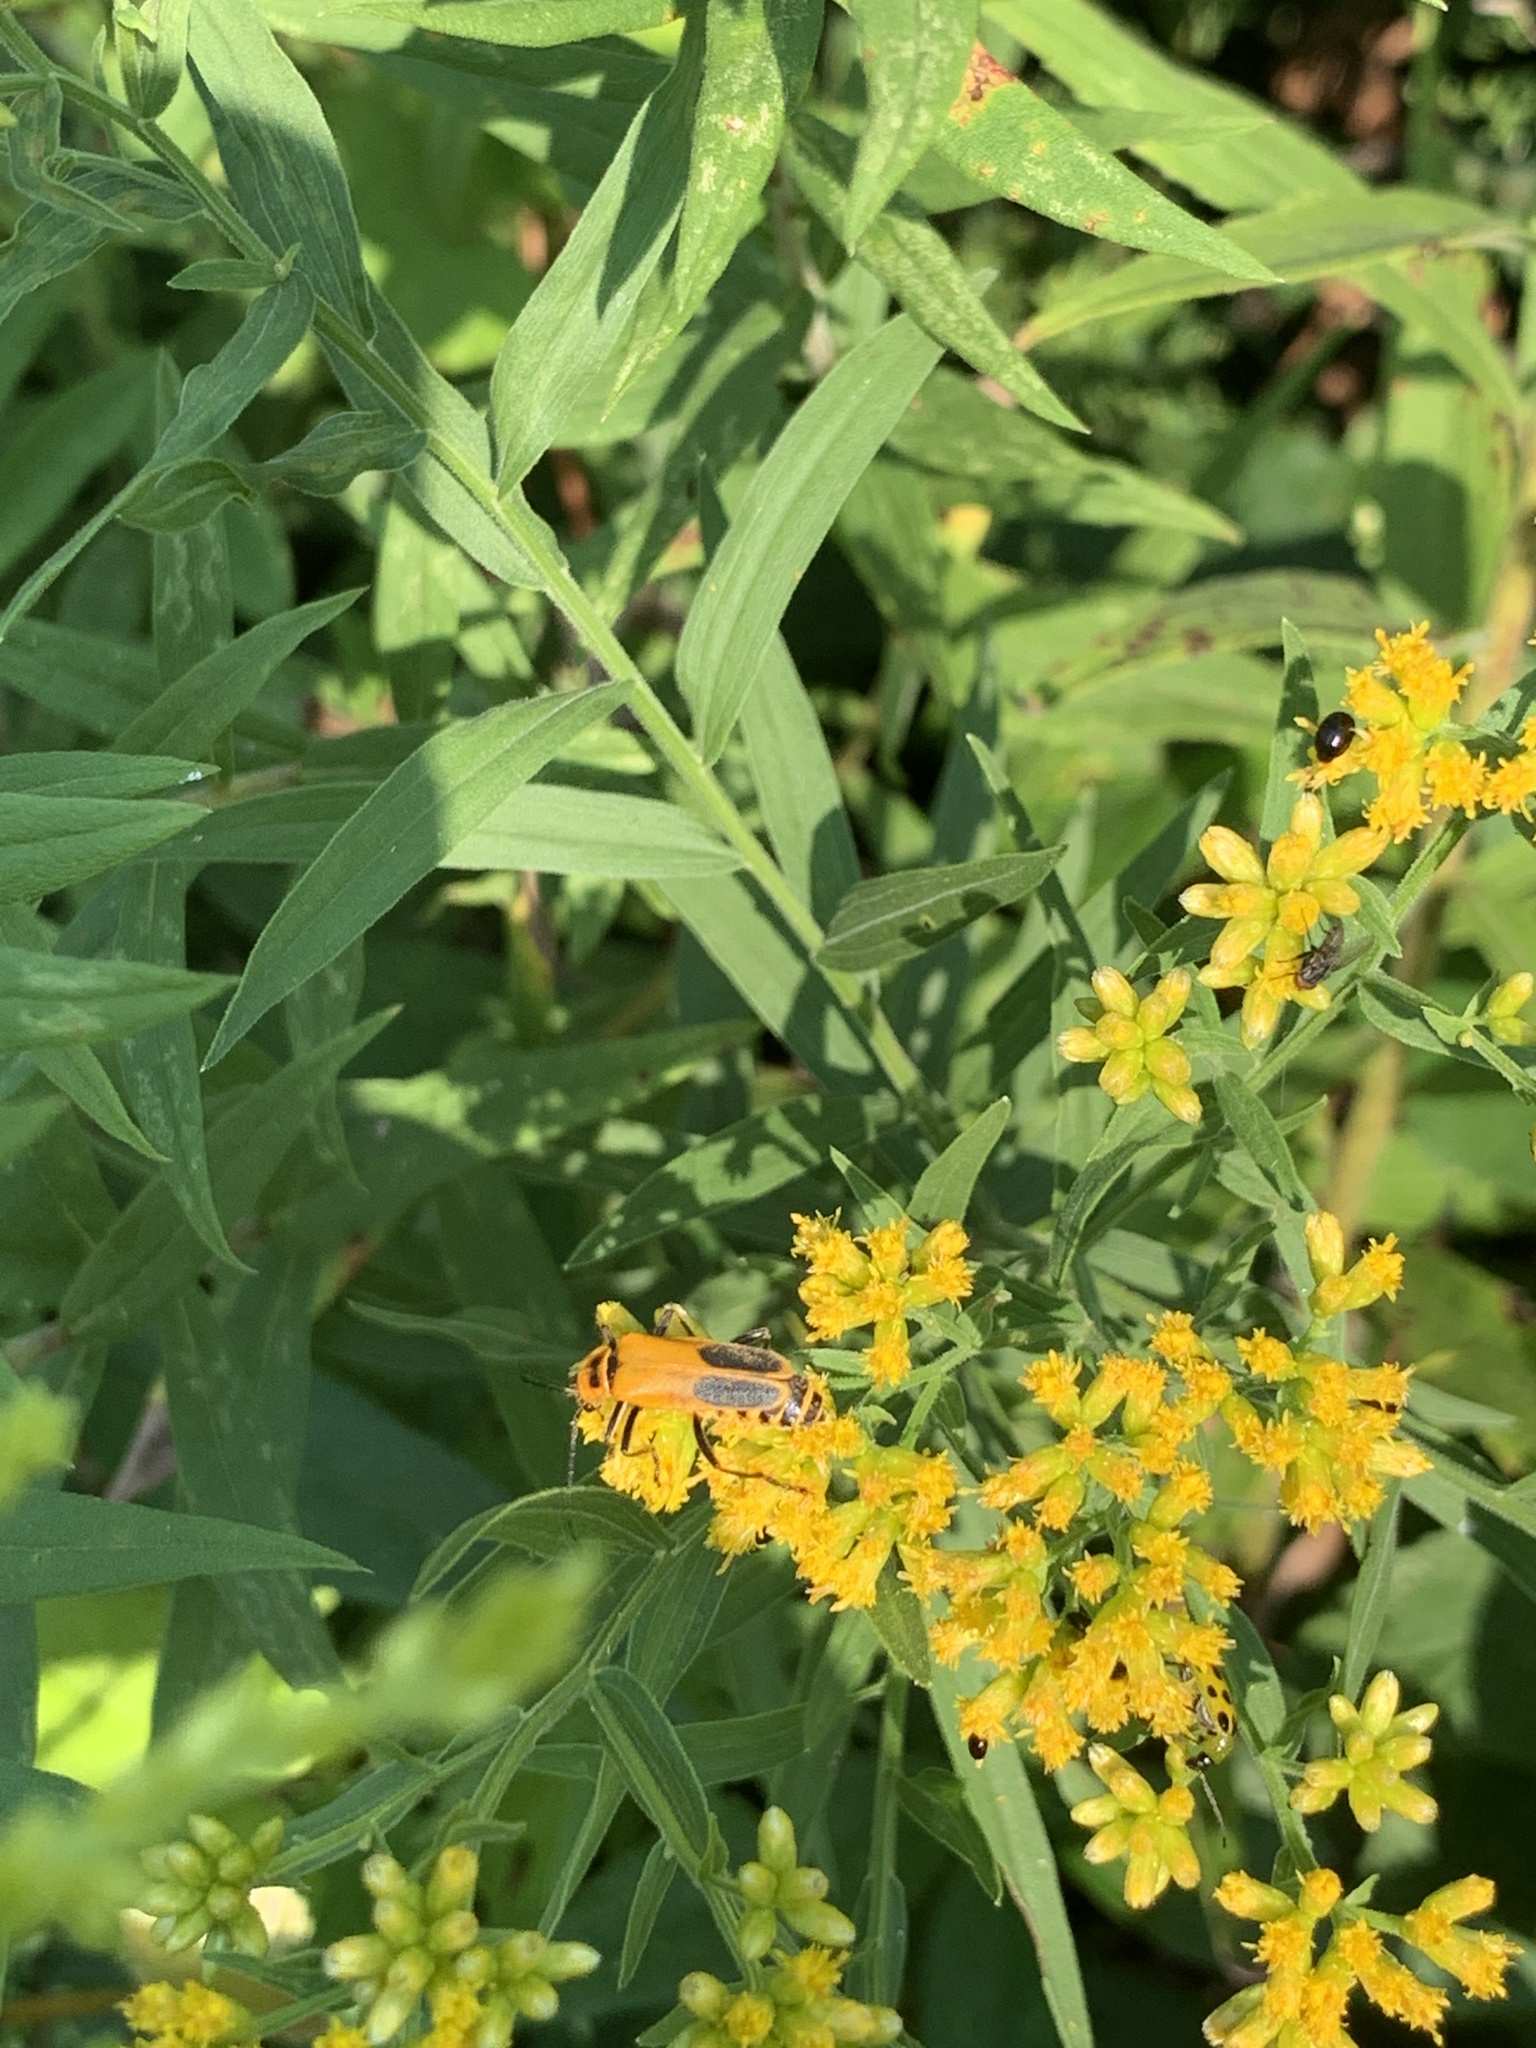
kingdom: Animalia
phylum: Arthropoda
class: Insecta
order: Coleoptera
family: Cantharidae
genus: Chauliognathus
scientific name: Chauliognathus pensylvanicus
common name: Goldenrod soldier beetle
